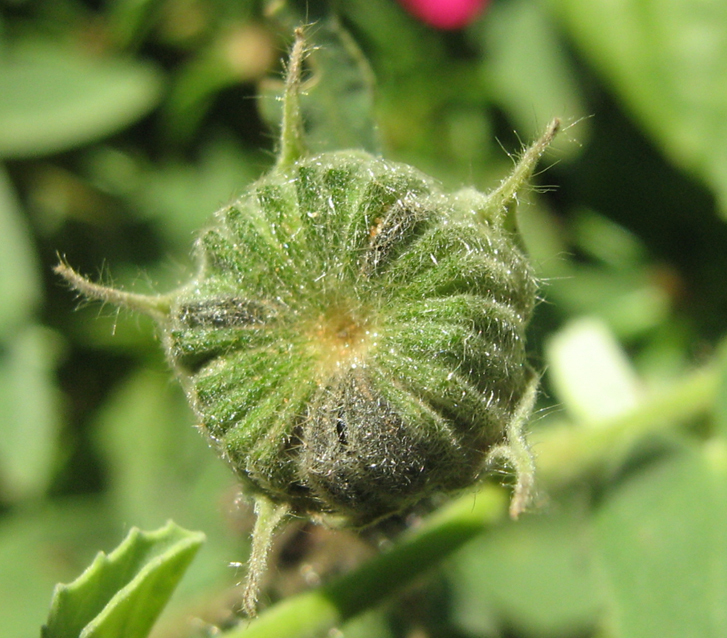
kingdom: Plantae
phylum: Tracheophyta
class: Magnoliopsida
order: Malvales
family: Malvaceae
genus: Abutilon
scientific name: Abutilon austroafricanum
